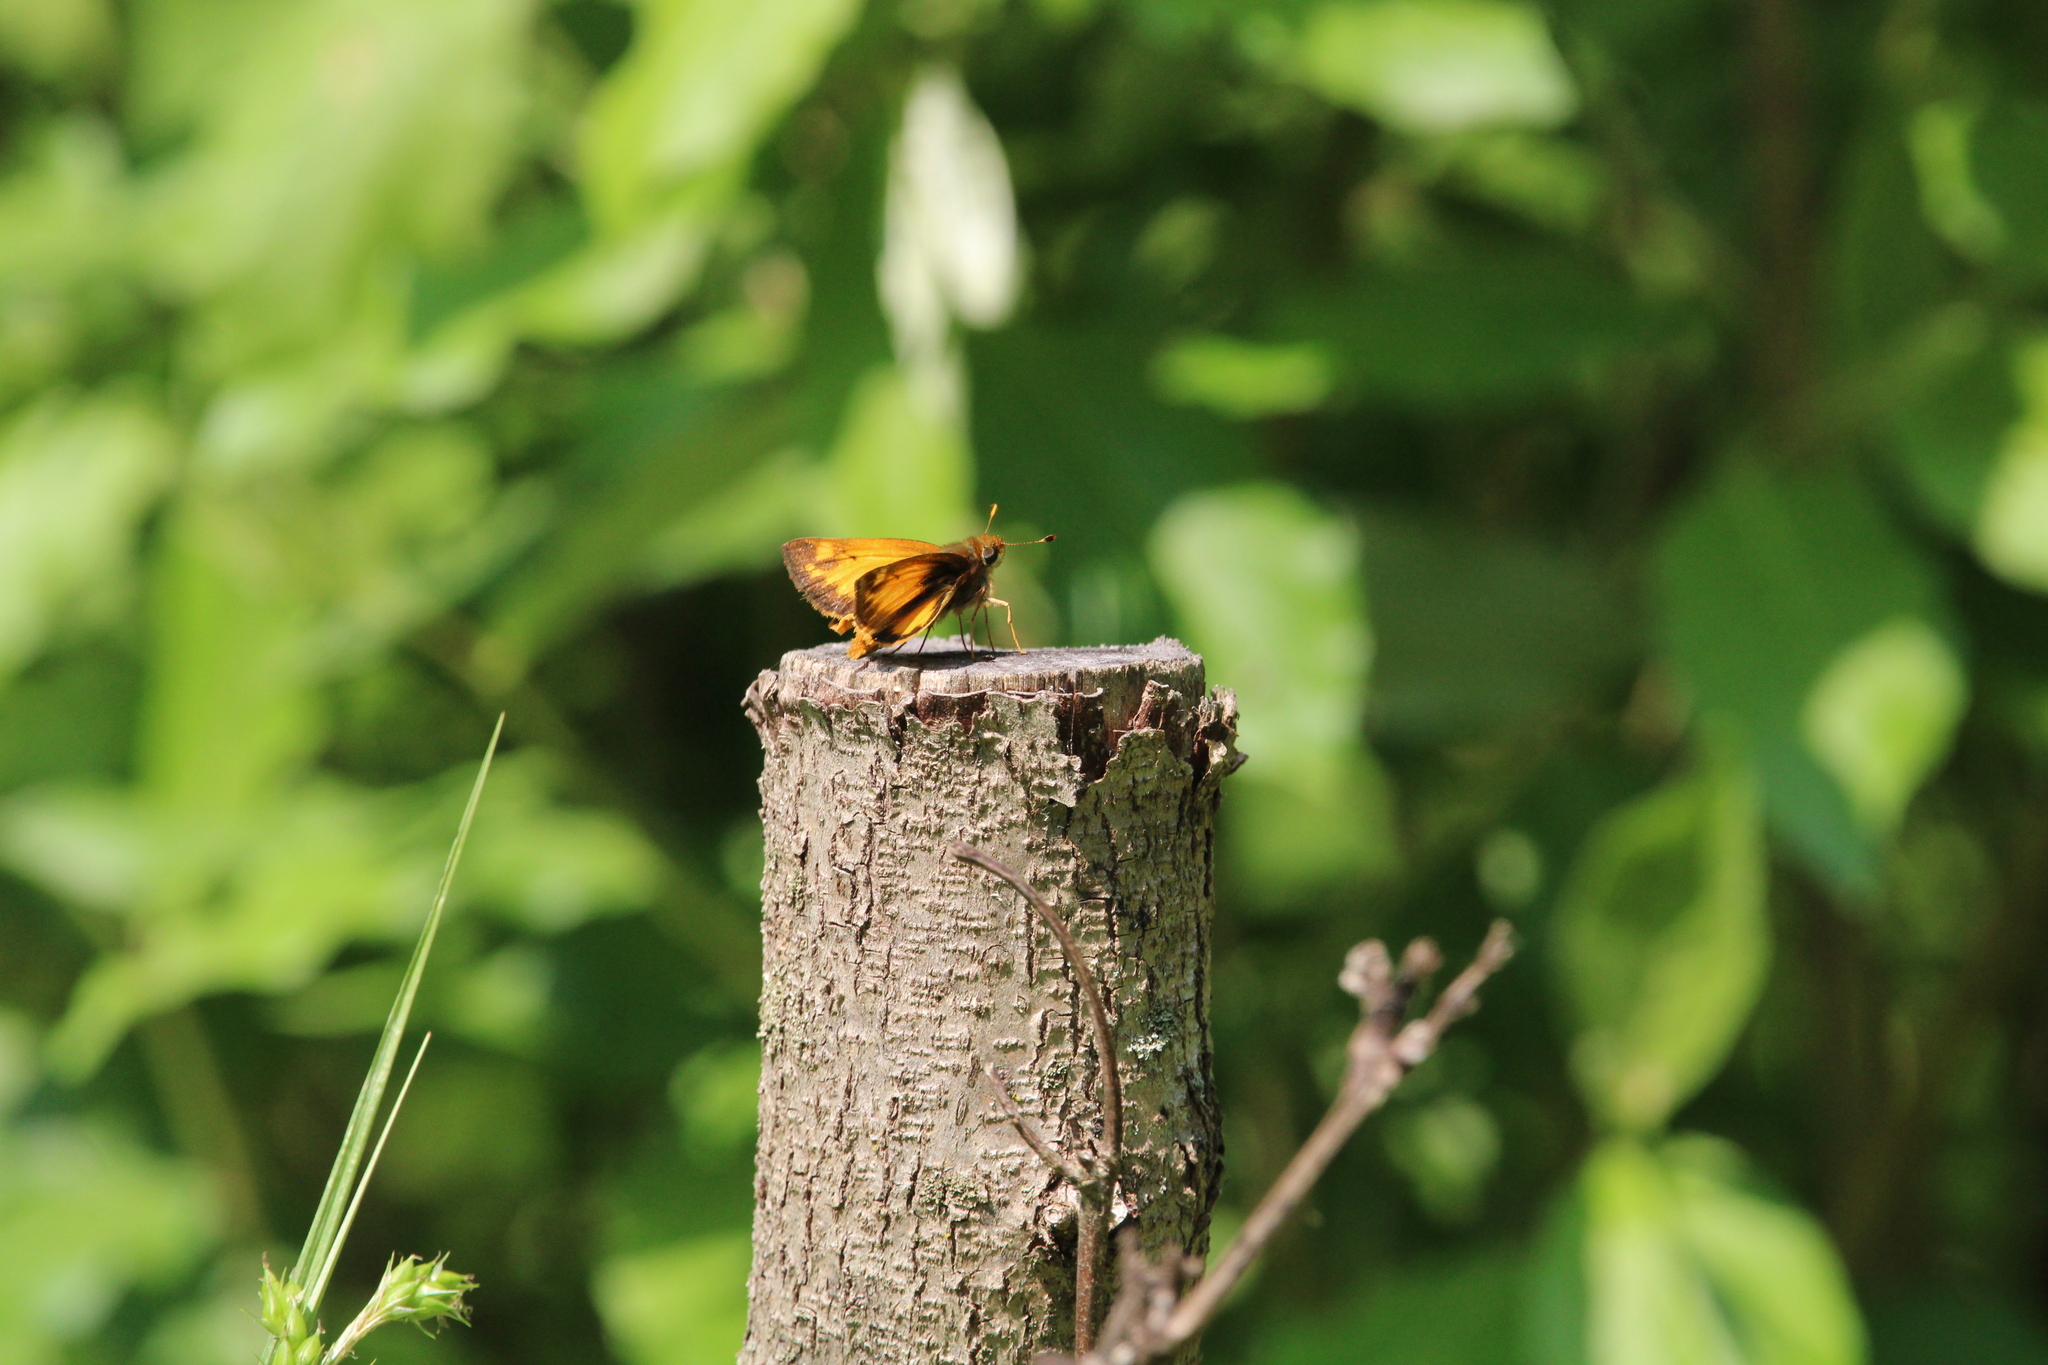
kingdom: Animalia
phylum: Arthropoda
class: Insecta
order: Lepidoptera
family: Hesperiidae
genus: Lon
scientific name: Lon zabulon
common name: Zabulon skipper
